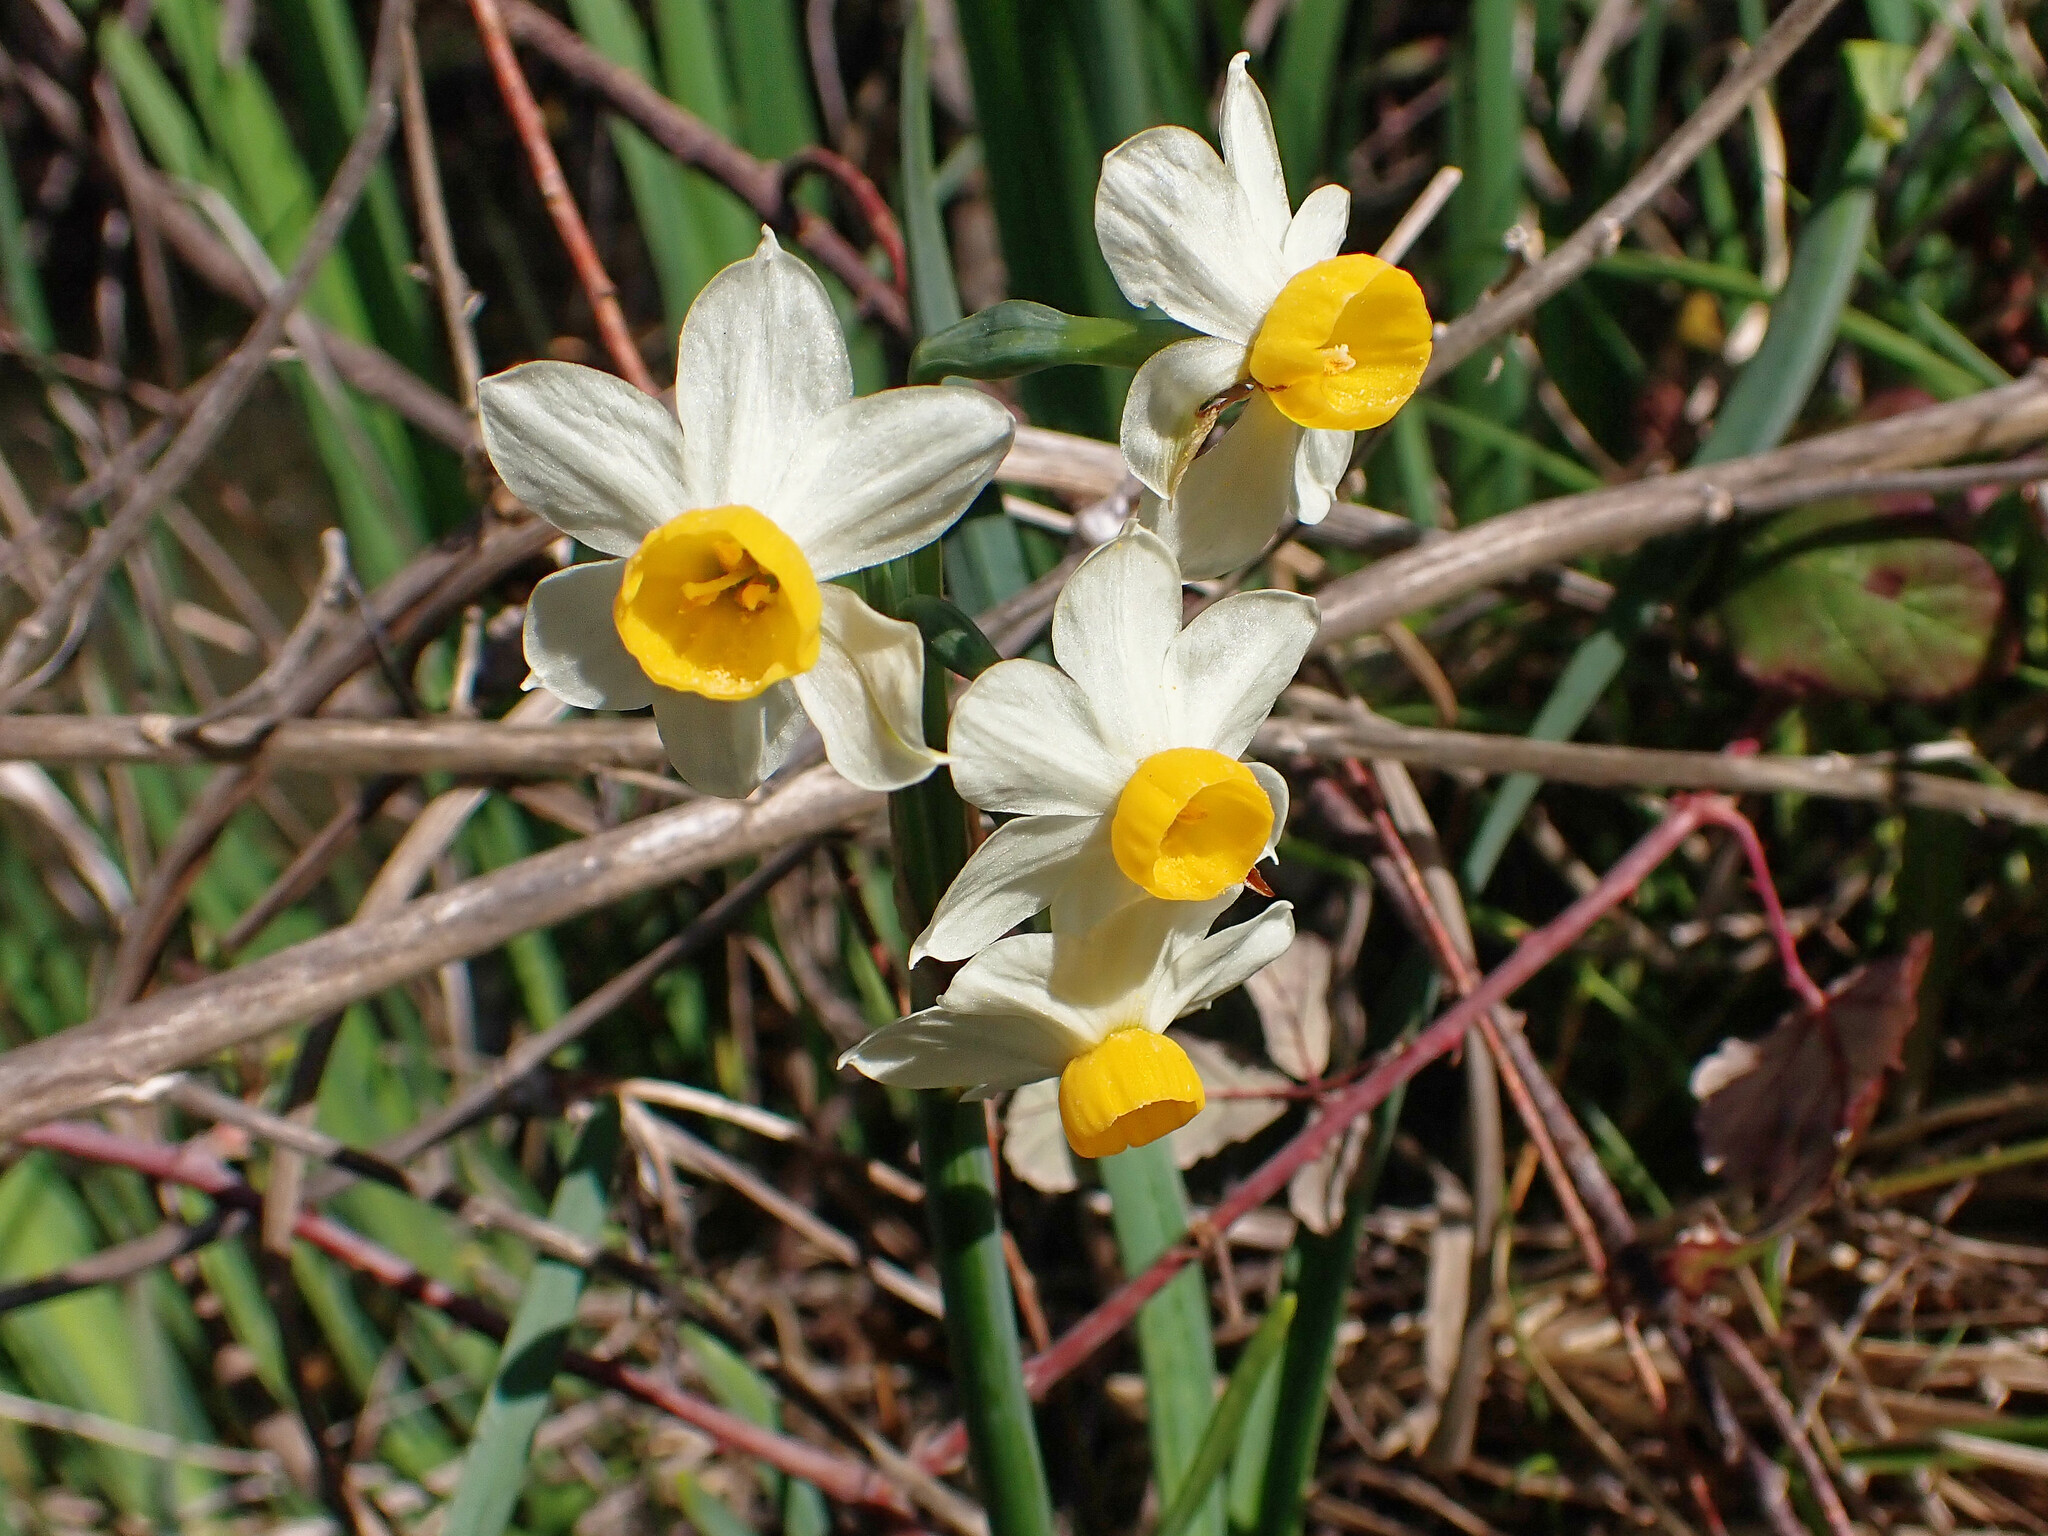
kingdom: Plantae
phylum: Tracheophyta
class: Liliopsida
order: Asparagales
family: Amaryllidaceae
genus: Narcissus
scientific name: Narcissus tazetta
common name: Bunch-flowered daffodil
